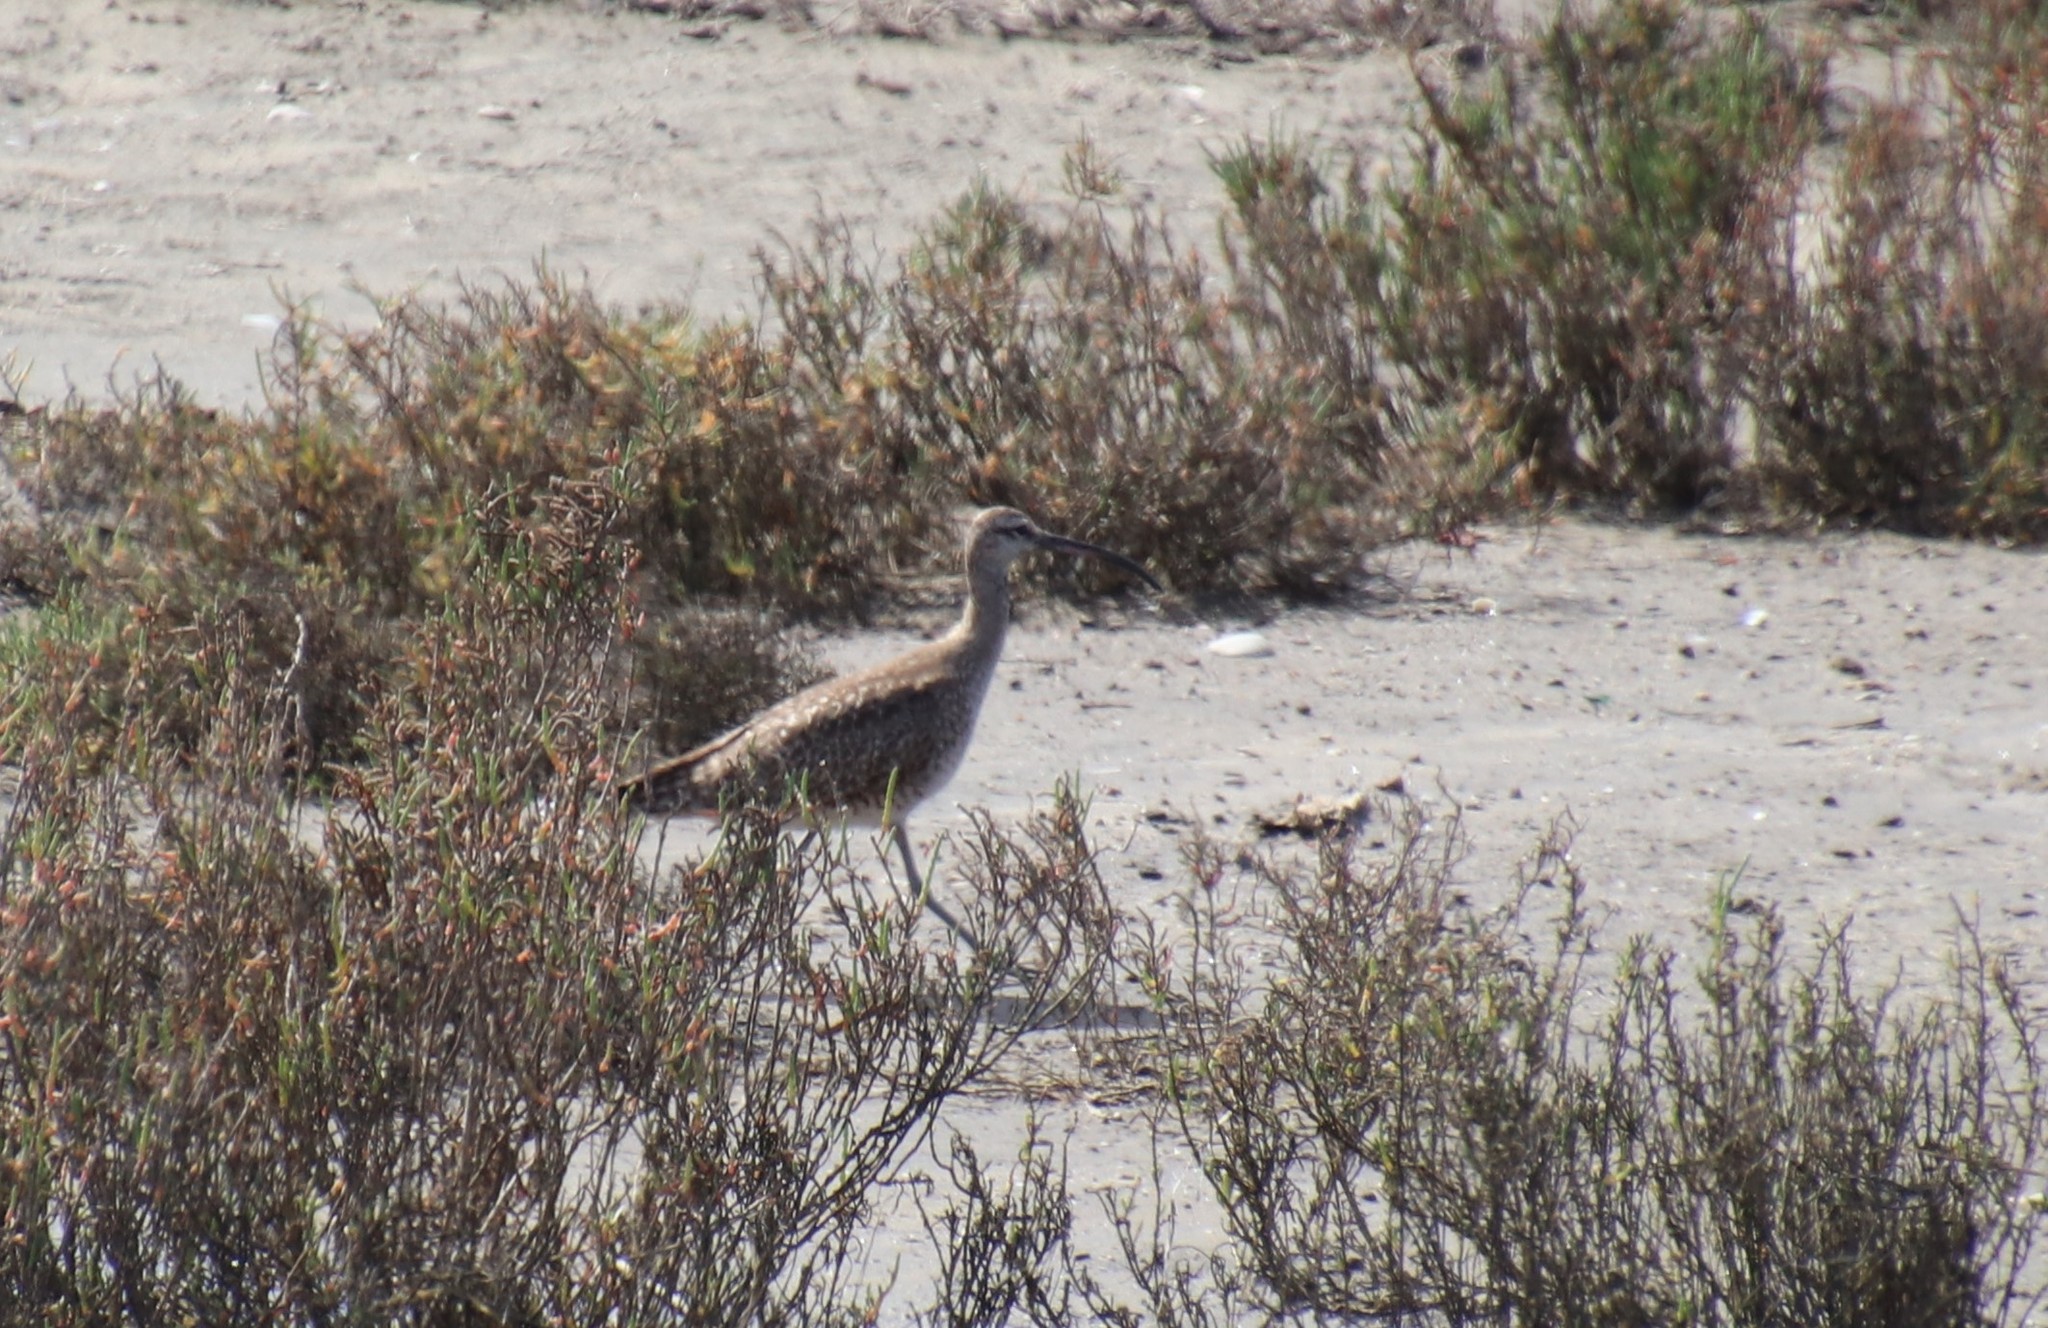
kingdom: Animalia
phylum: Chordata
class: Aves
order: Charadriiformes
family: Scolopacidae
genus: Numenius
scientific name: Numenius phaeopus
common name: Whimbrel
